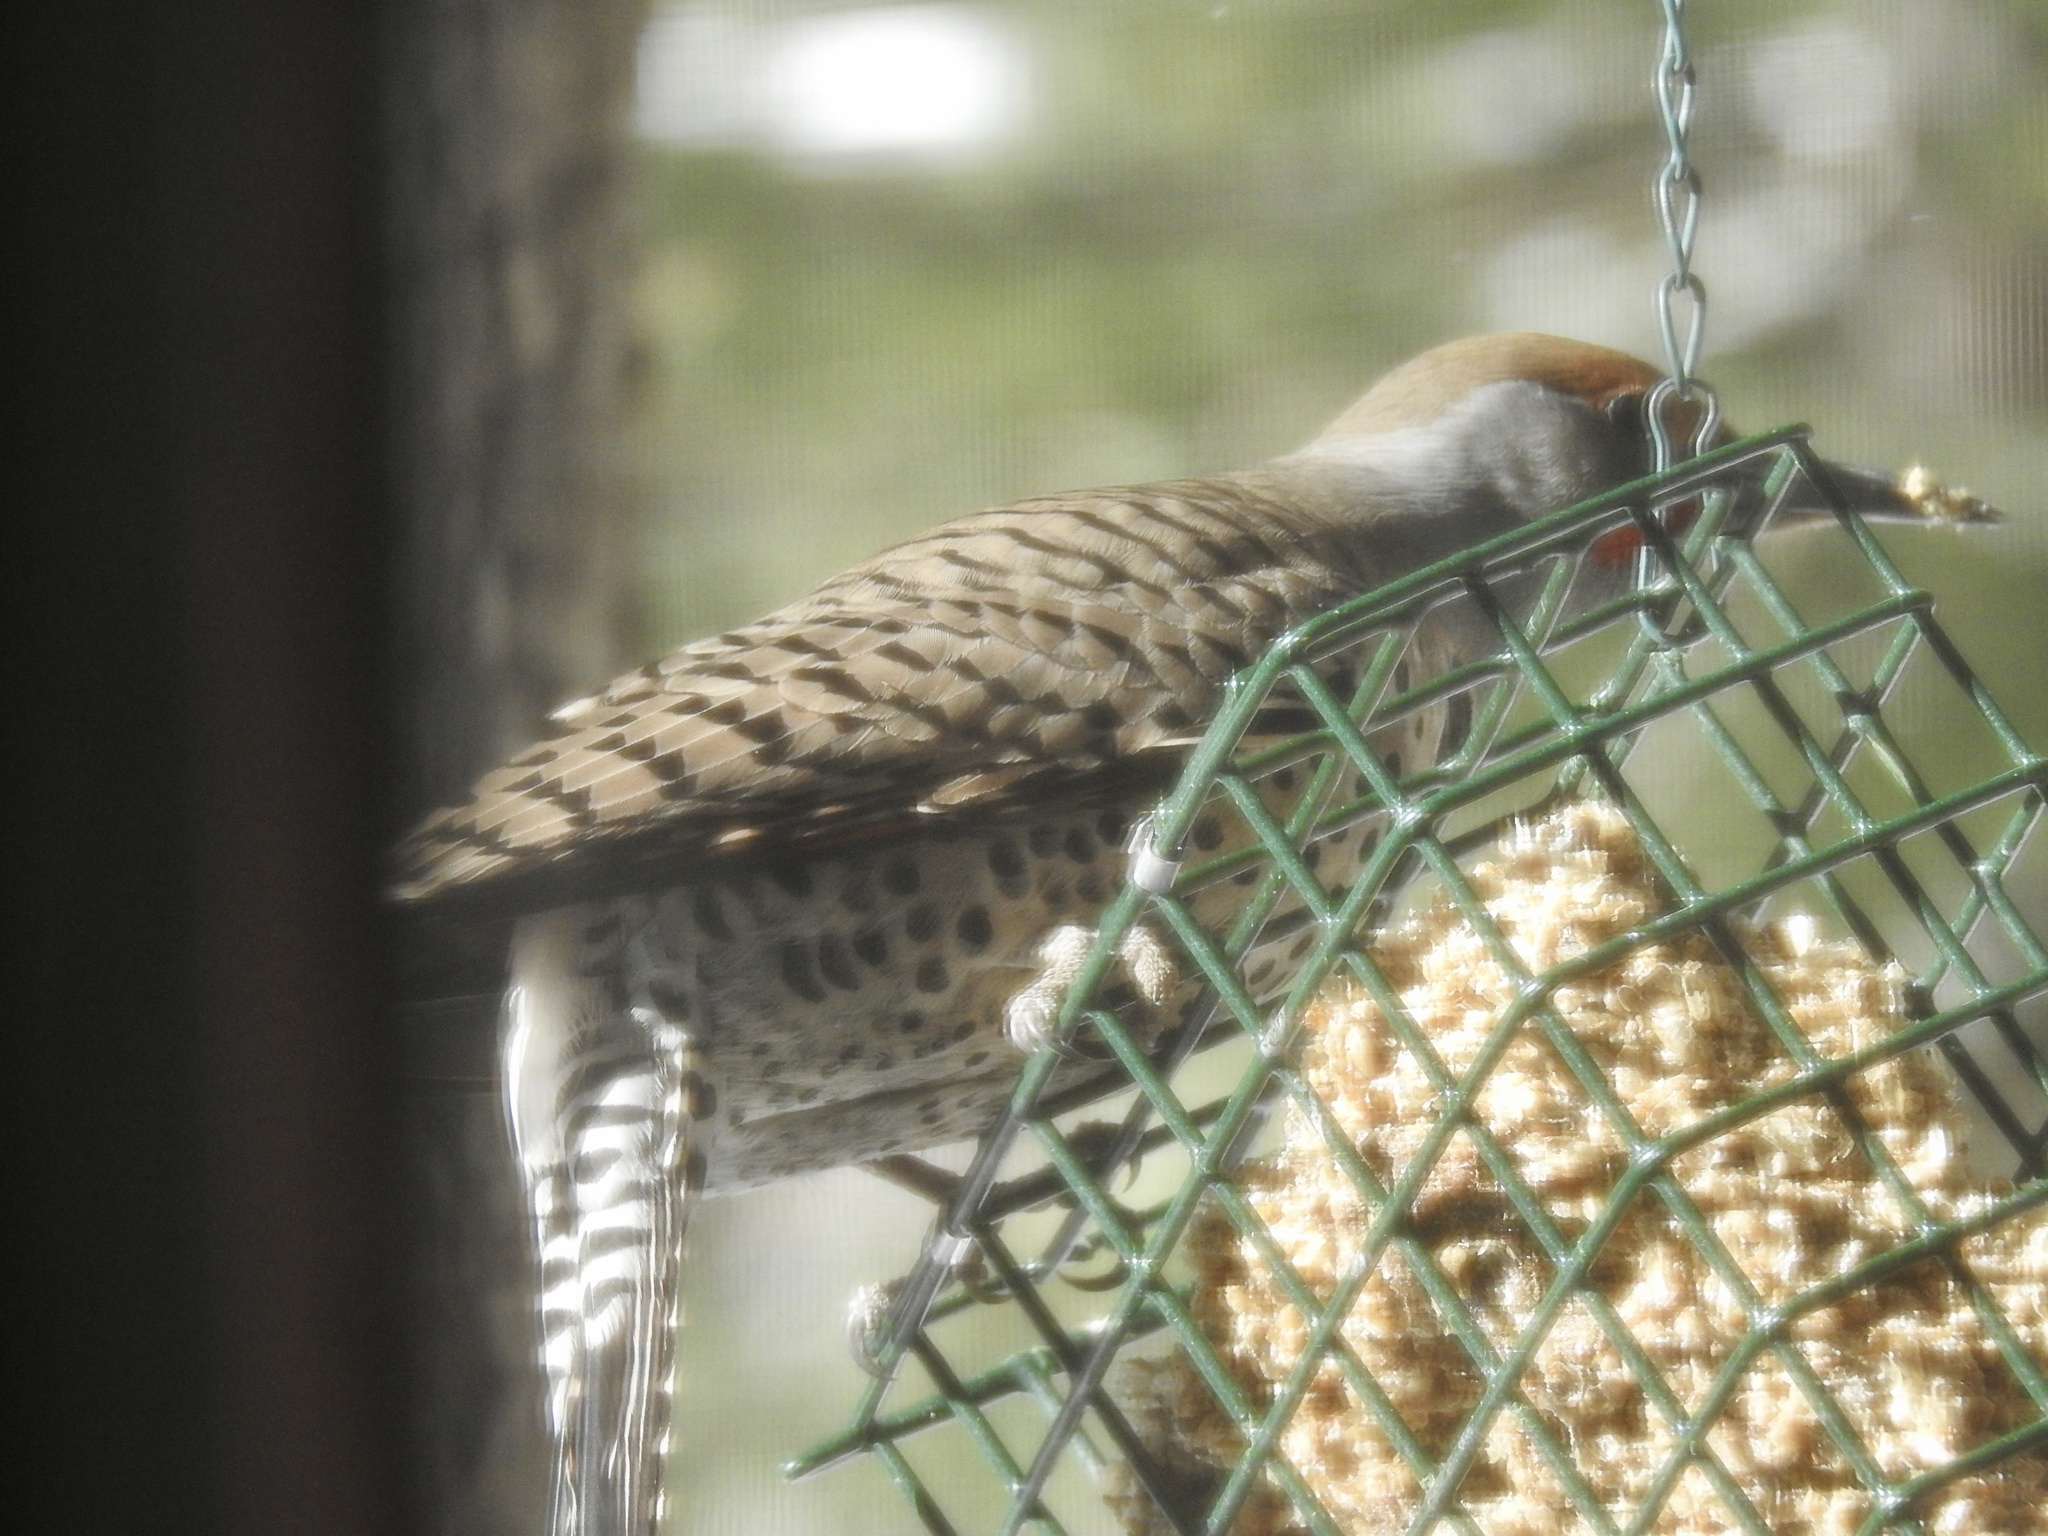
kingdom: Animalia
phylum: Chordata
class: Aves
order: Piciformes
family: Picidae
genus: Colaptes
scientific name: Colaptes auratus
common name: Northern flicker
